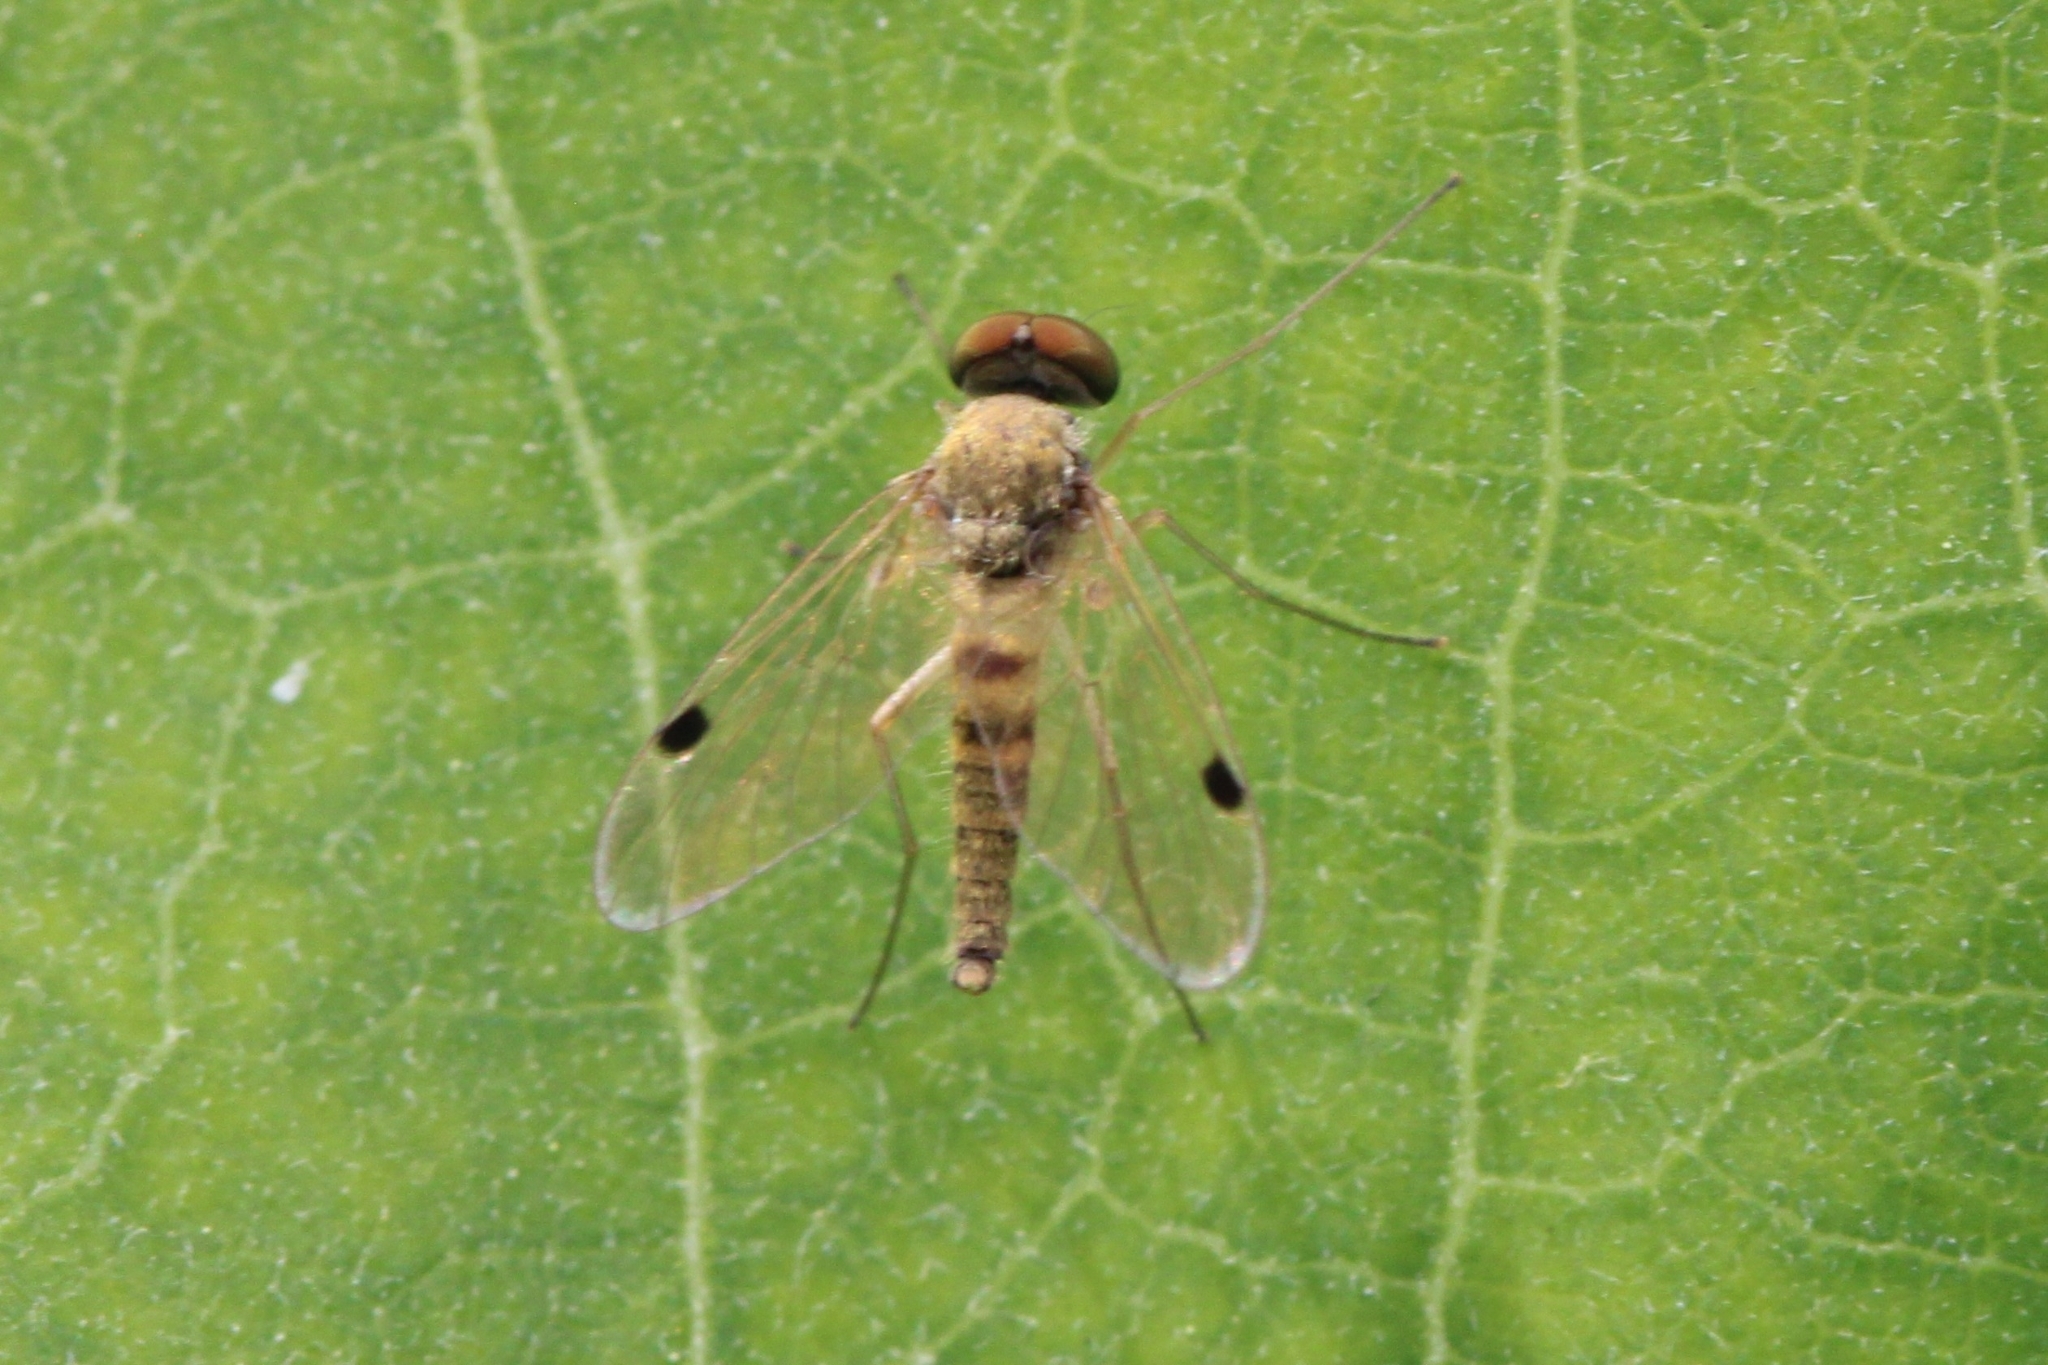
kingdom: Animalia
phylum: Arthropoda
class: Insecta
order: Diptera
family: Rhagionidae
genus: Chrysopilus
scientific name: Chrysopilus modestus
